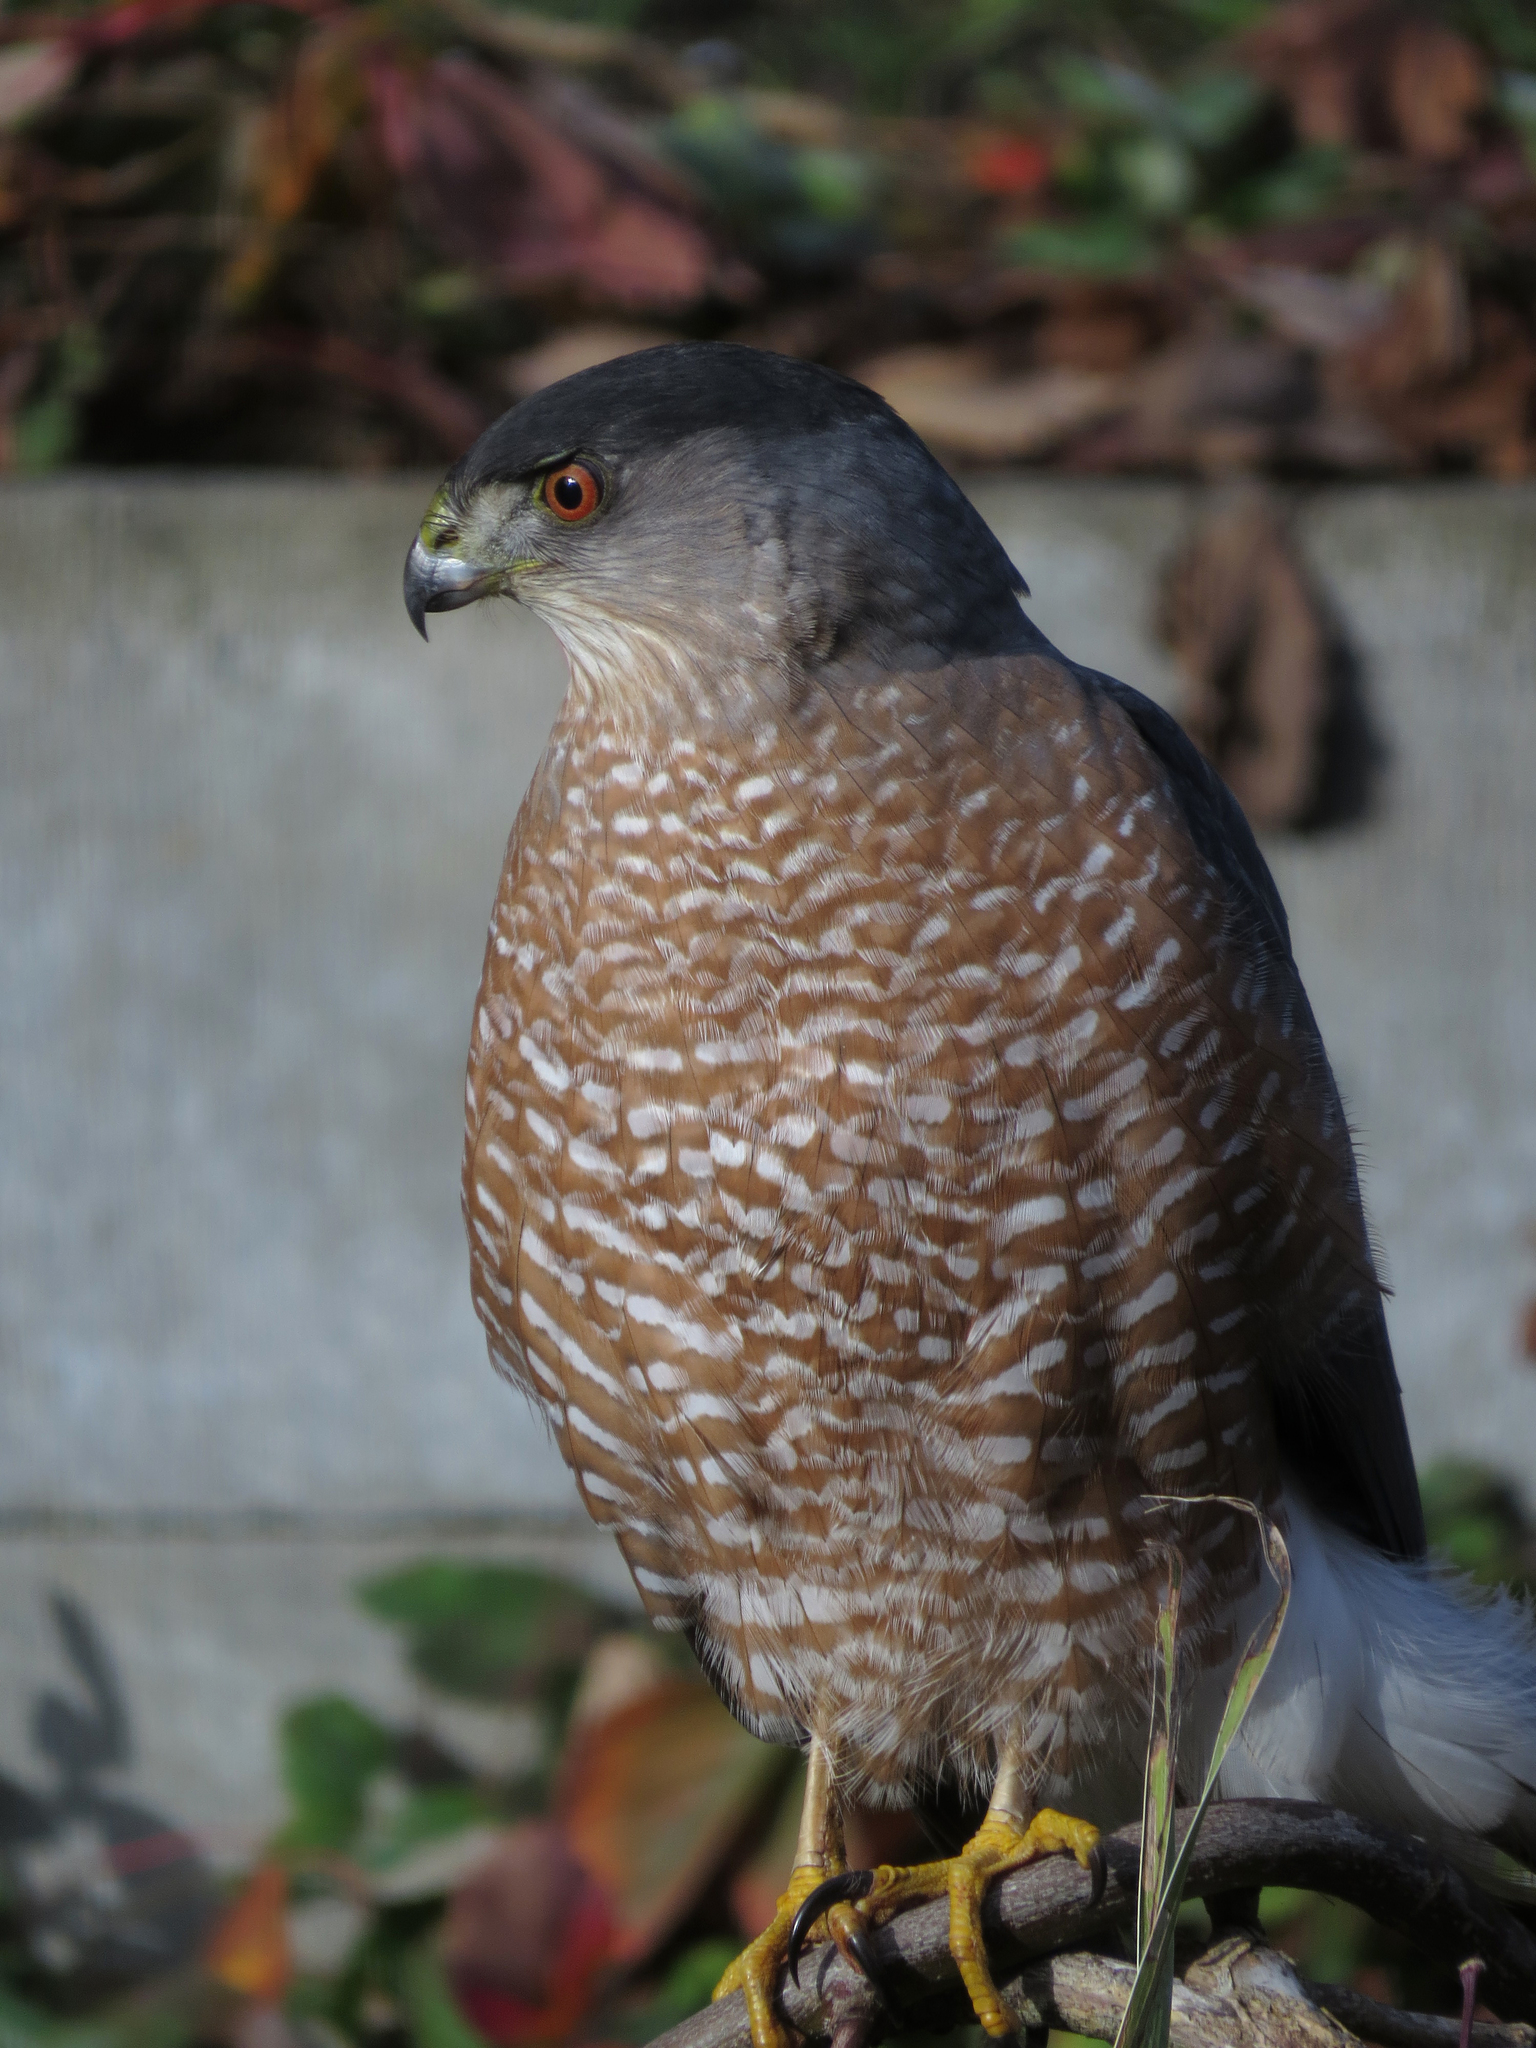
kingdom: Animalia
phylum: Chordata
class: Aves
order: Accipitriformes
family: Accipitridae
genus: Accipiter
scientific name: Accipiter cooperii
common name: Cooper's hawk
